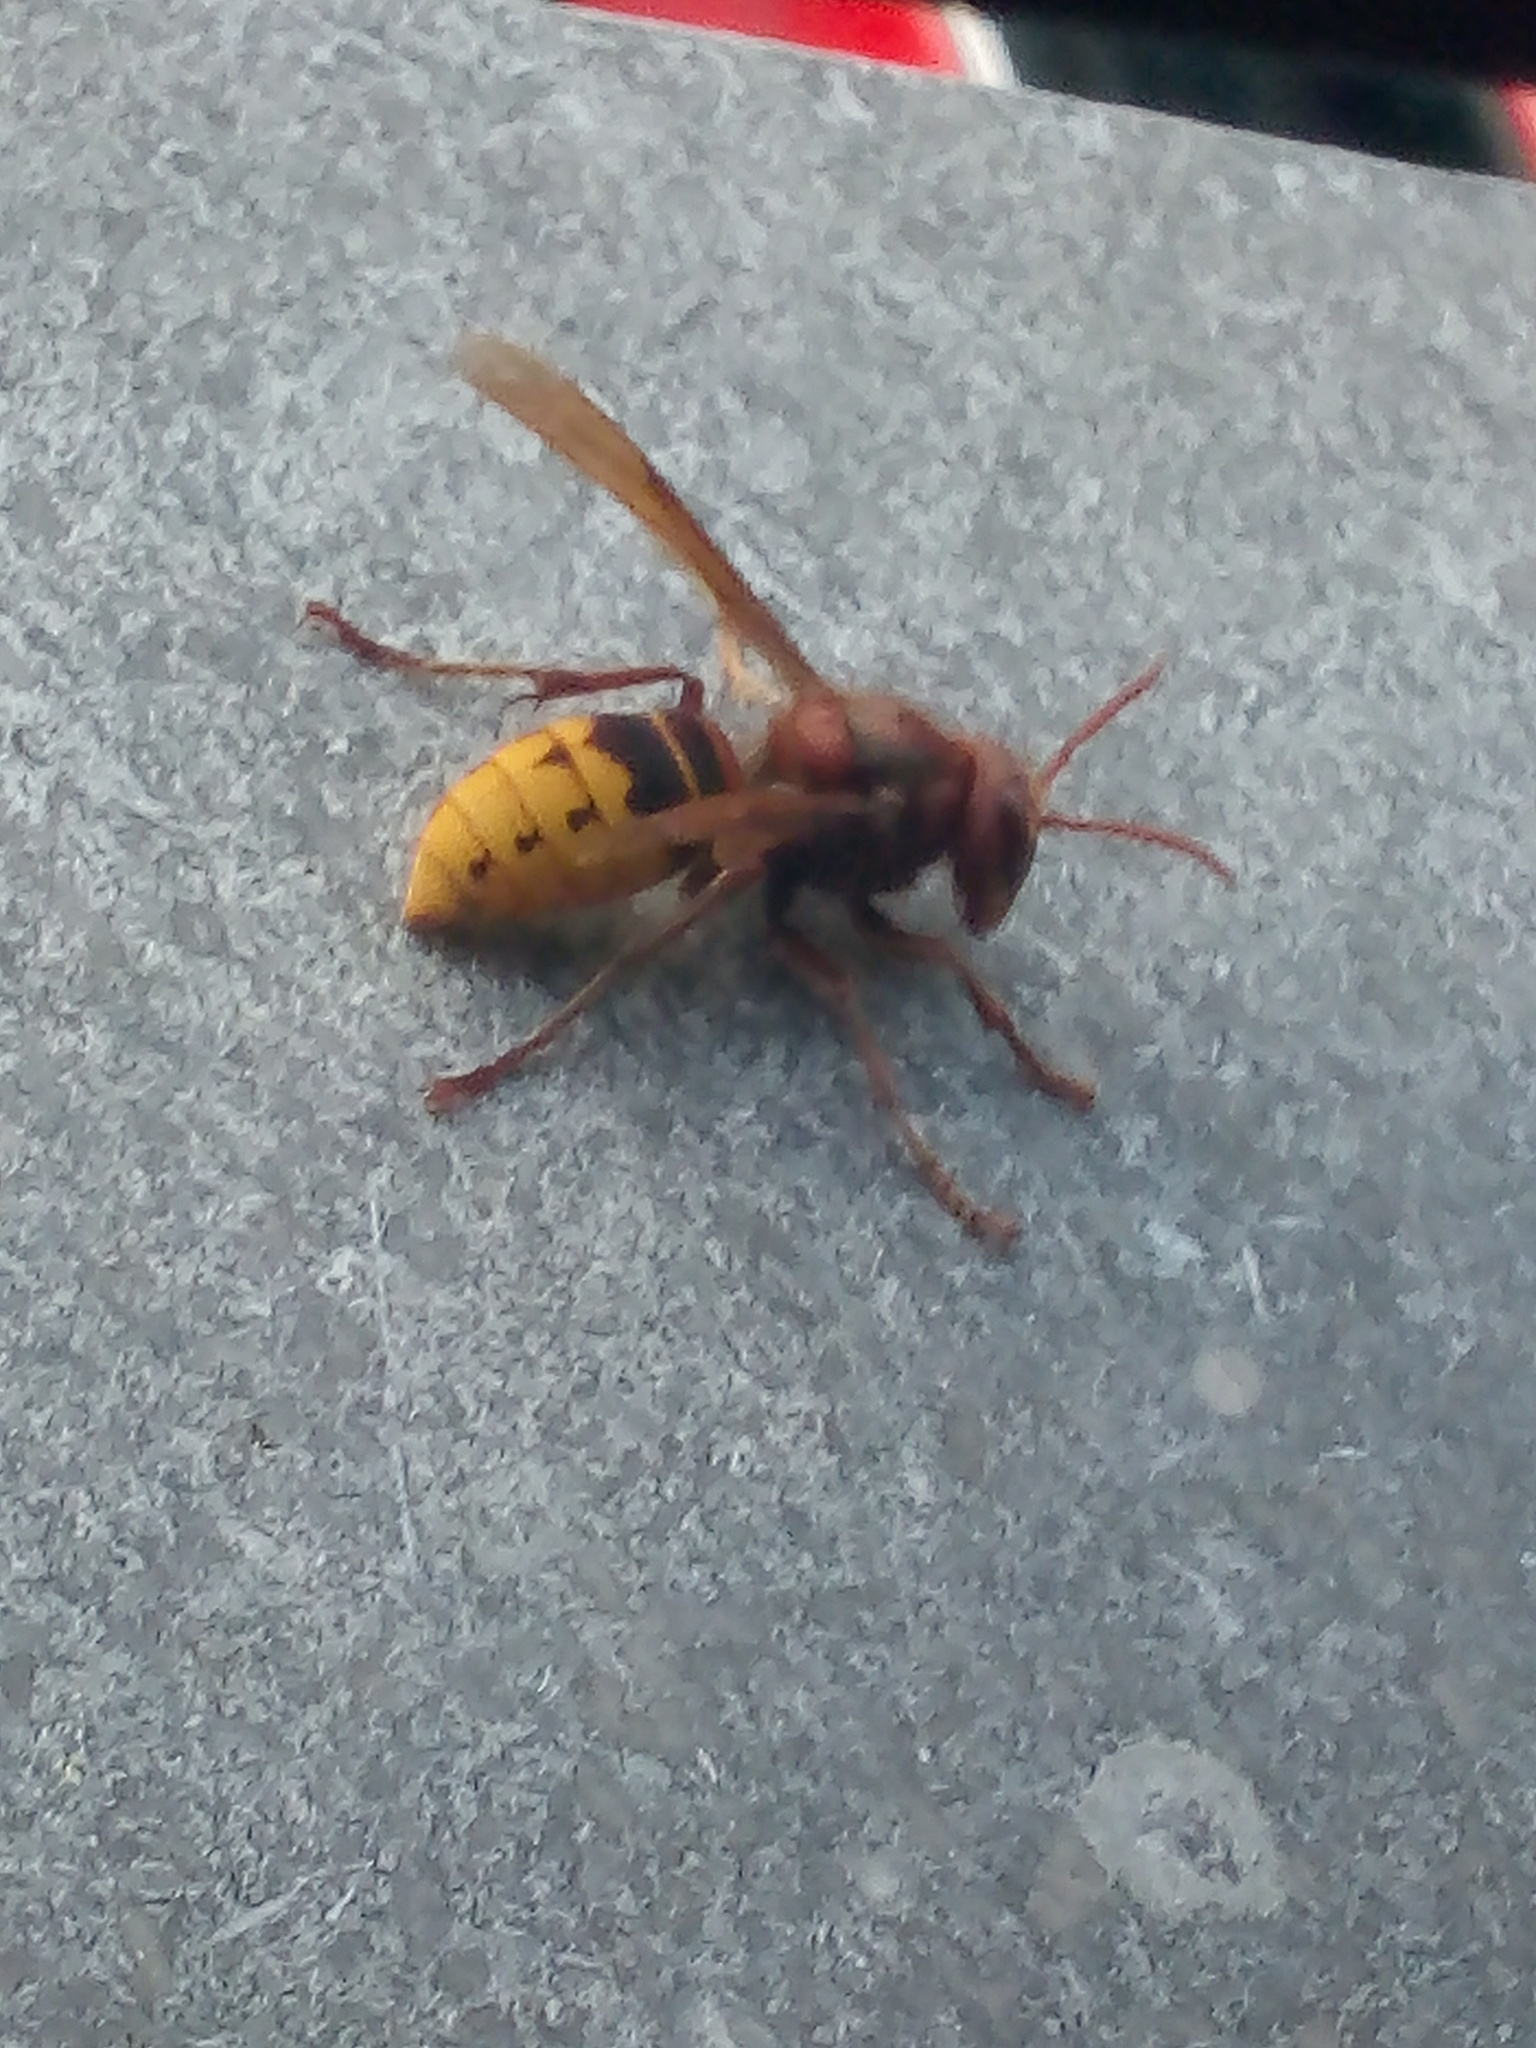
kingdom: Animalia
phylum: Arthropoda
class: Insecta
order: Hymenoptera
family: Vespidae
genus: Vespa
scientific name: Vespa crabro
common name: Hornet
